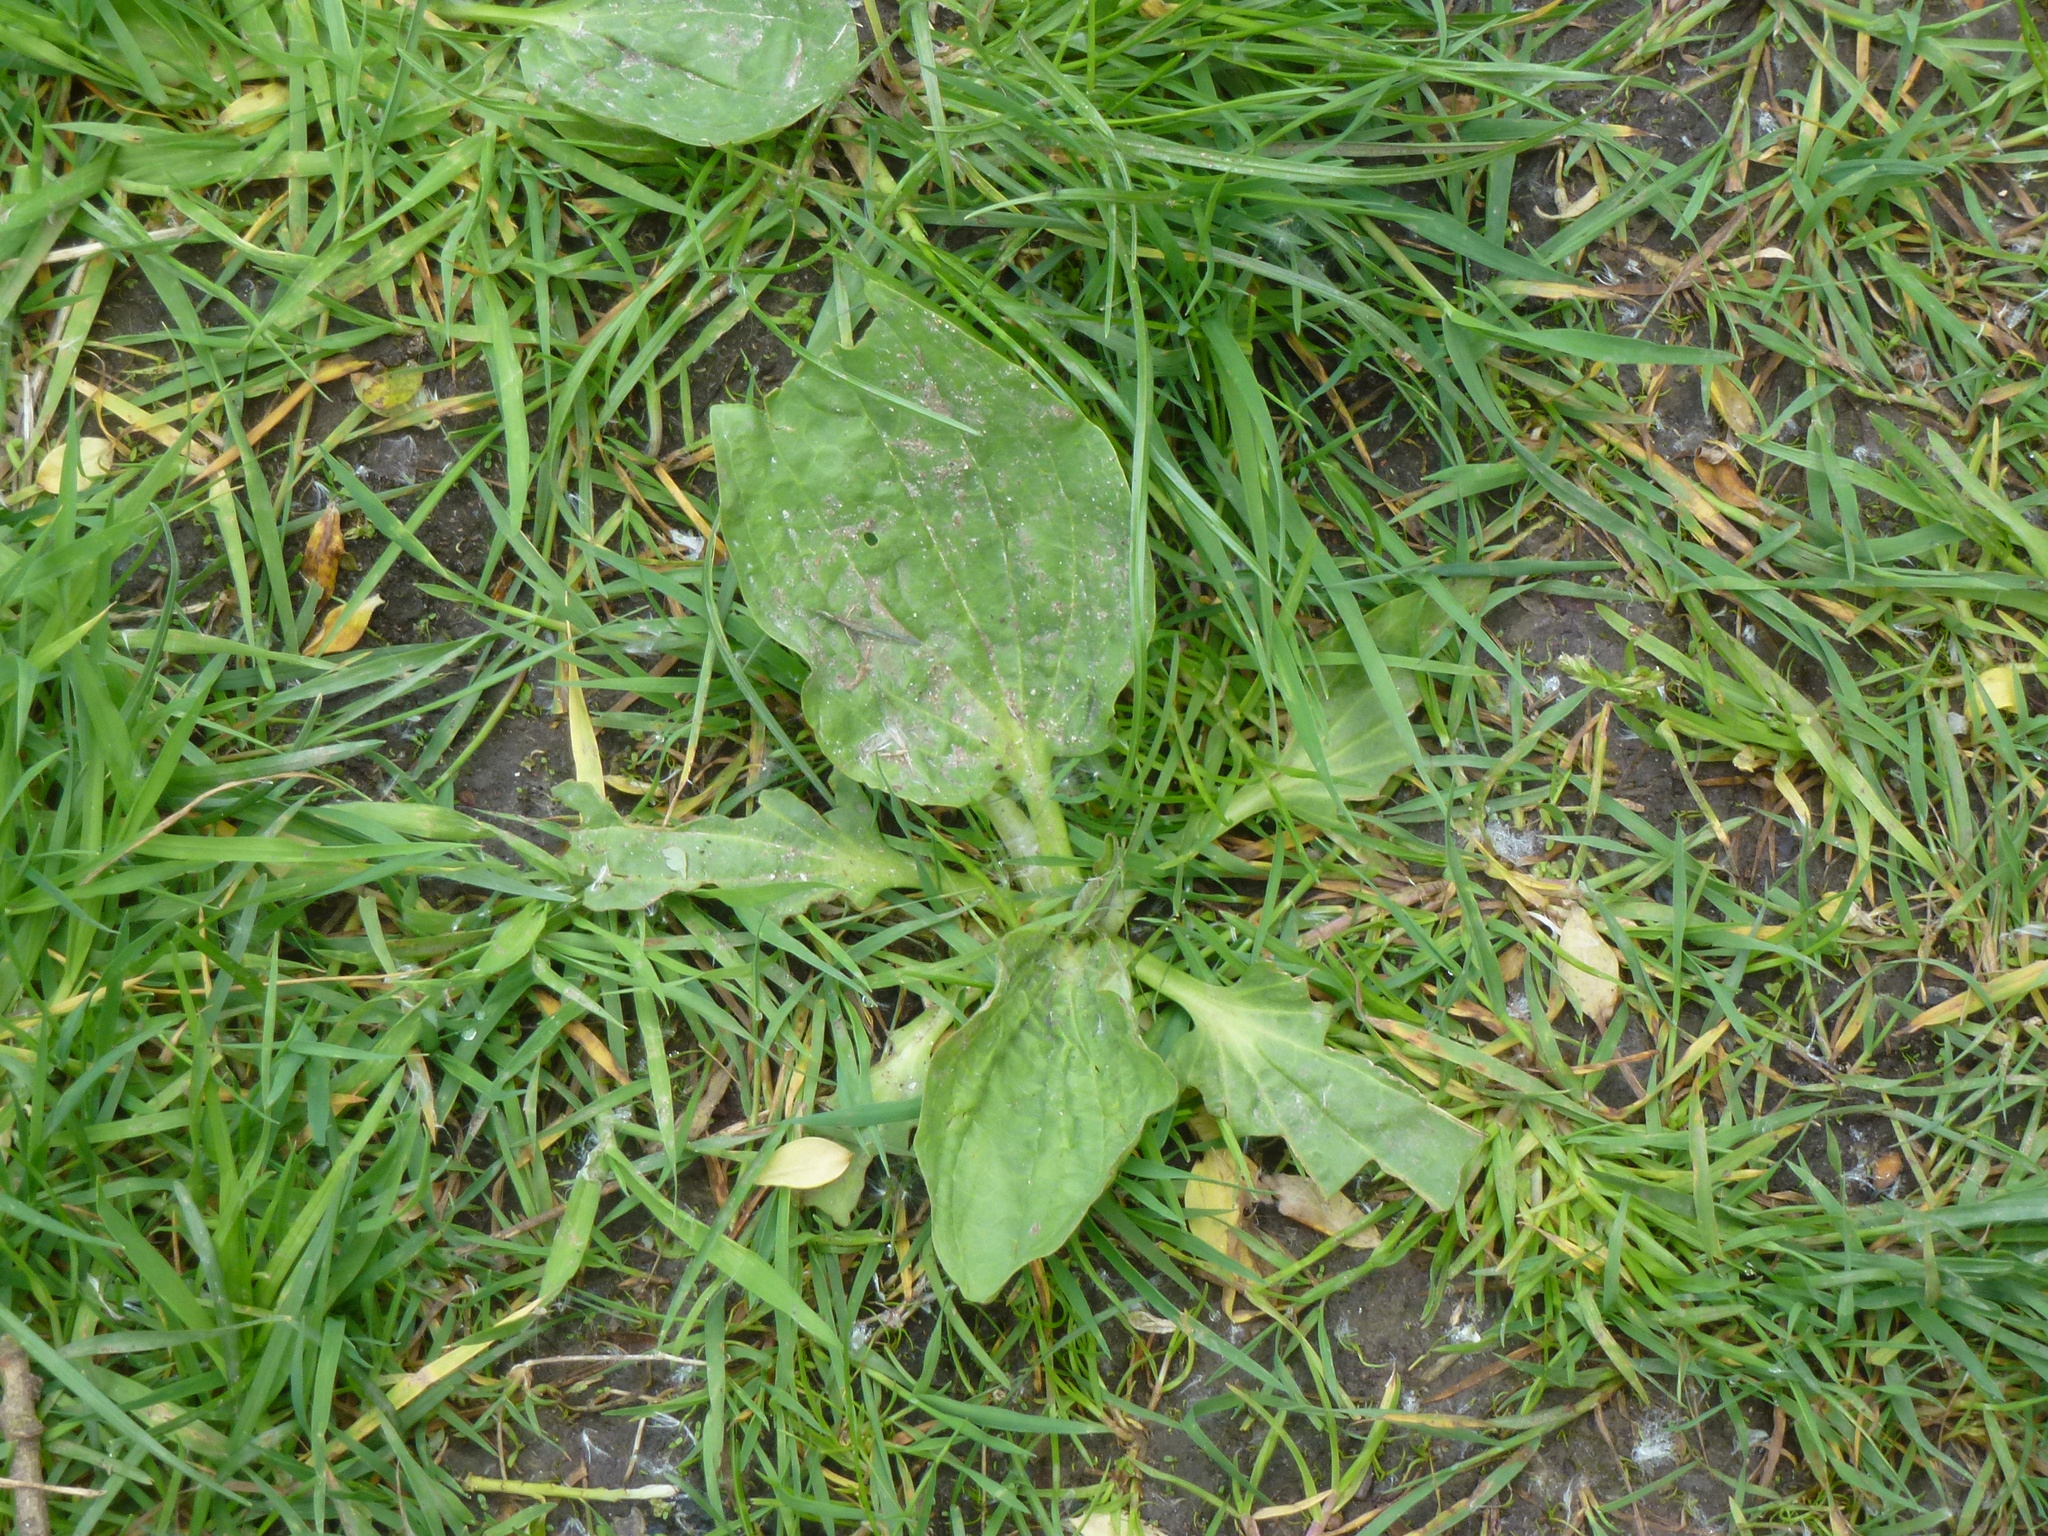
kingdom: Plantae
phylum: Tracheophyta
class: Magnoliopsida
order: Lamiales
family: Plantaginaceae
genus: Plantago
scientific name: Plantago major
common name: Common plantain
